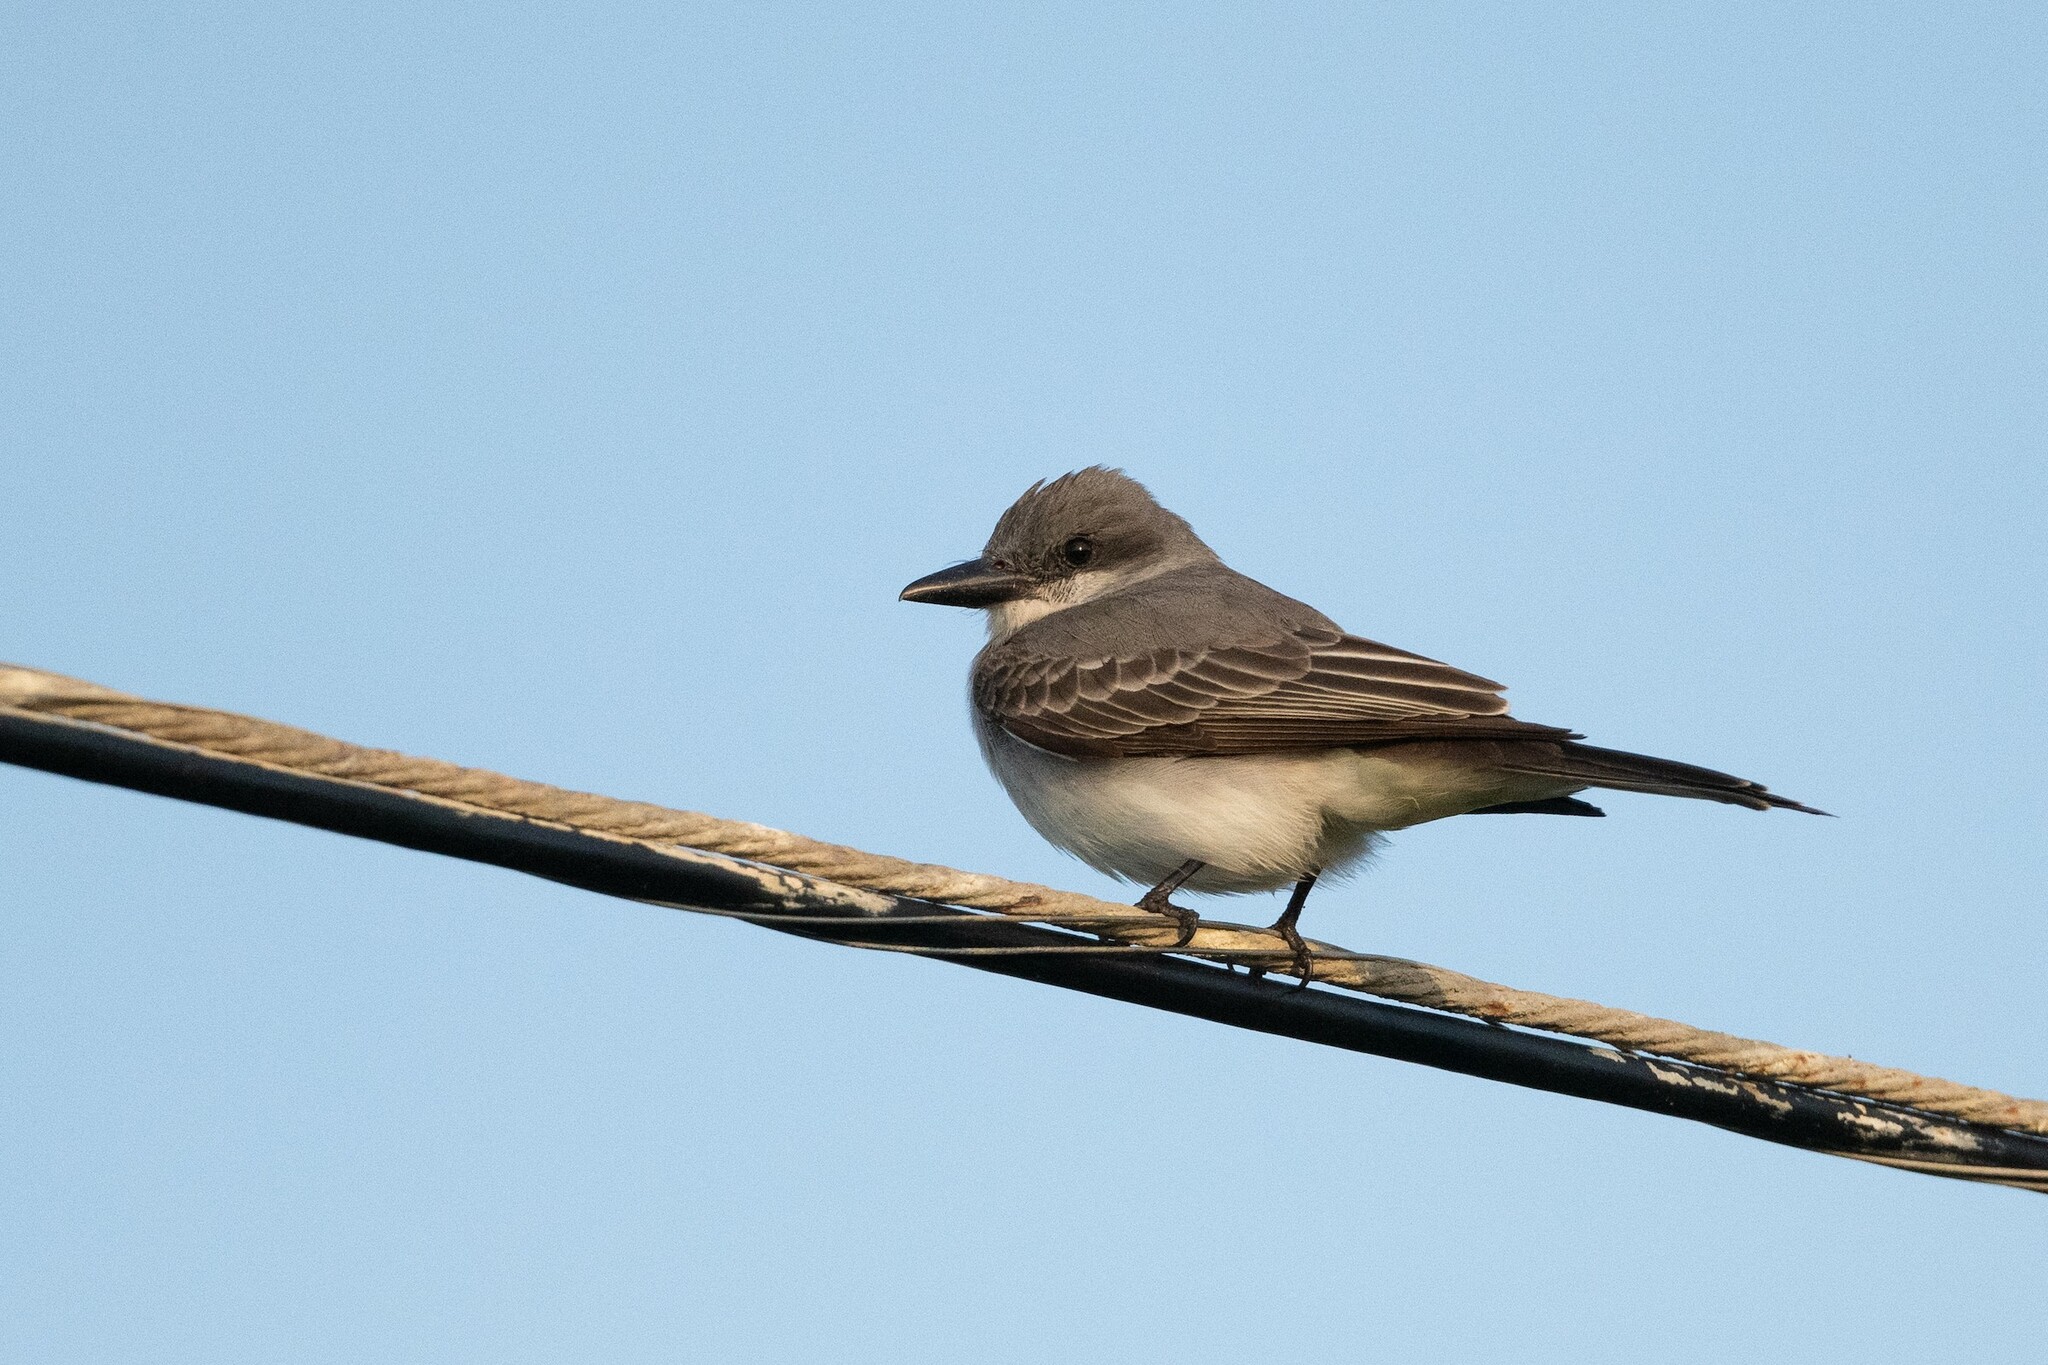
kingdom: Animalia
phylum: Chordata
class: Aves
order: Passeriformes
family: Tyrannidae
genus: Tyrannus
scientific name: Tyrannus dominicensis
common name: Gray kingbird
